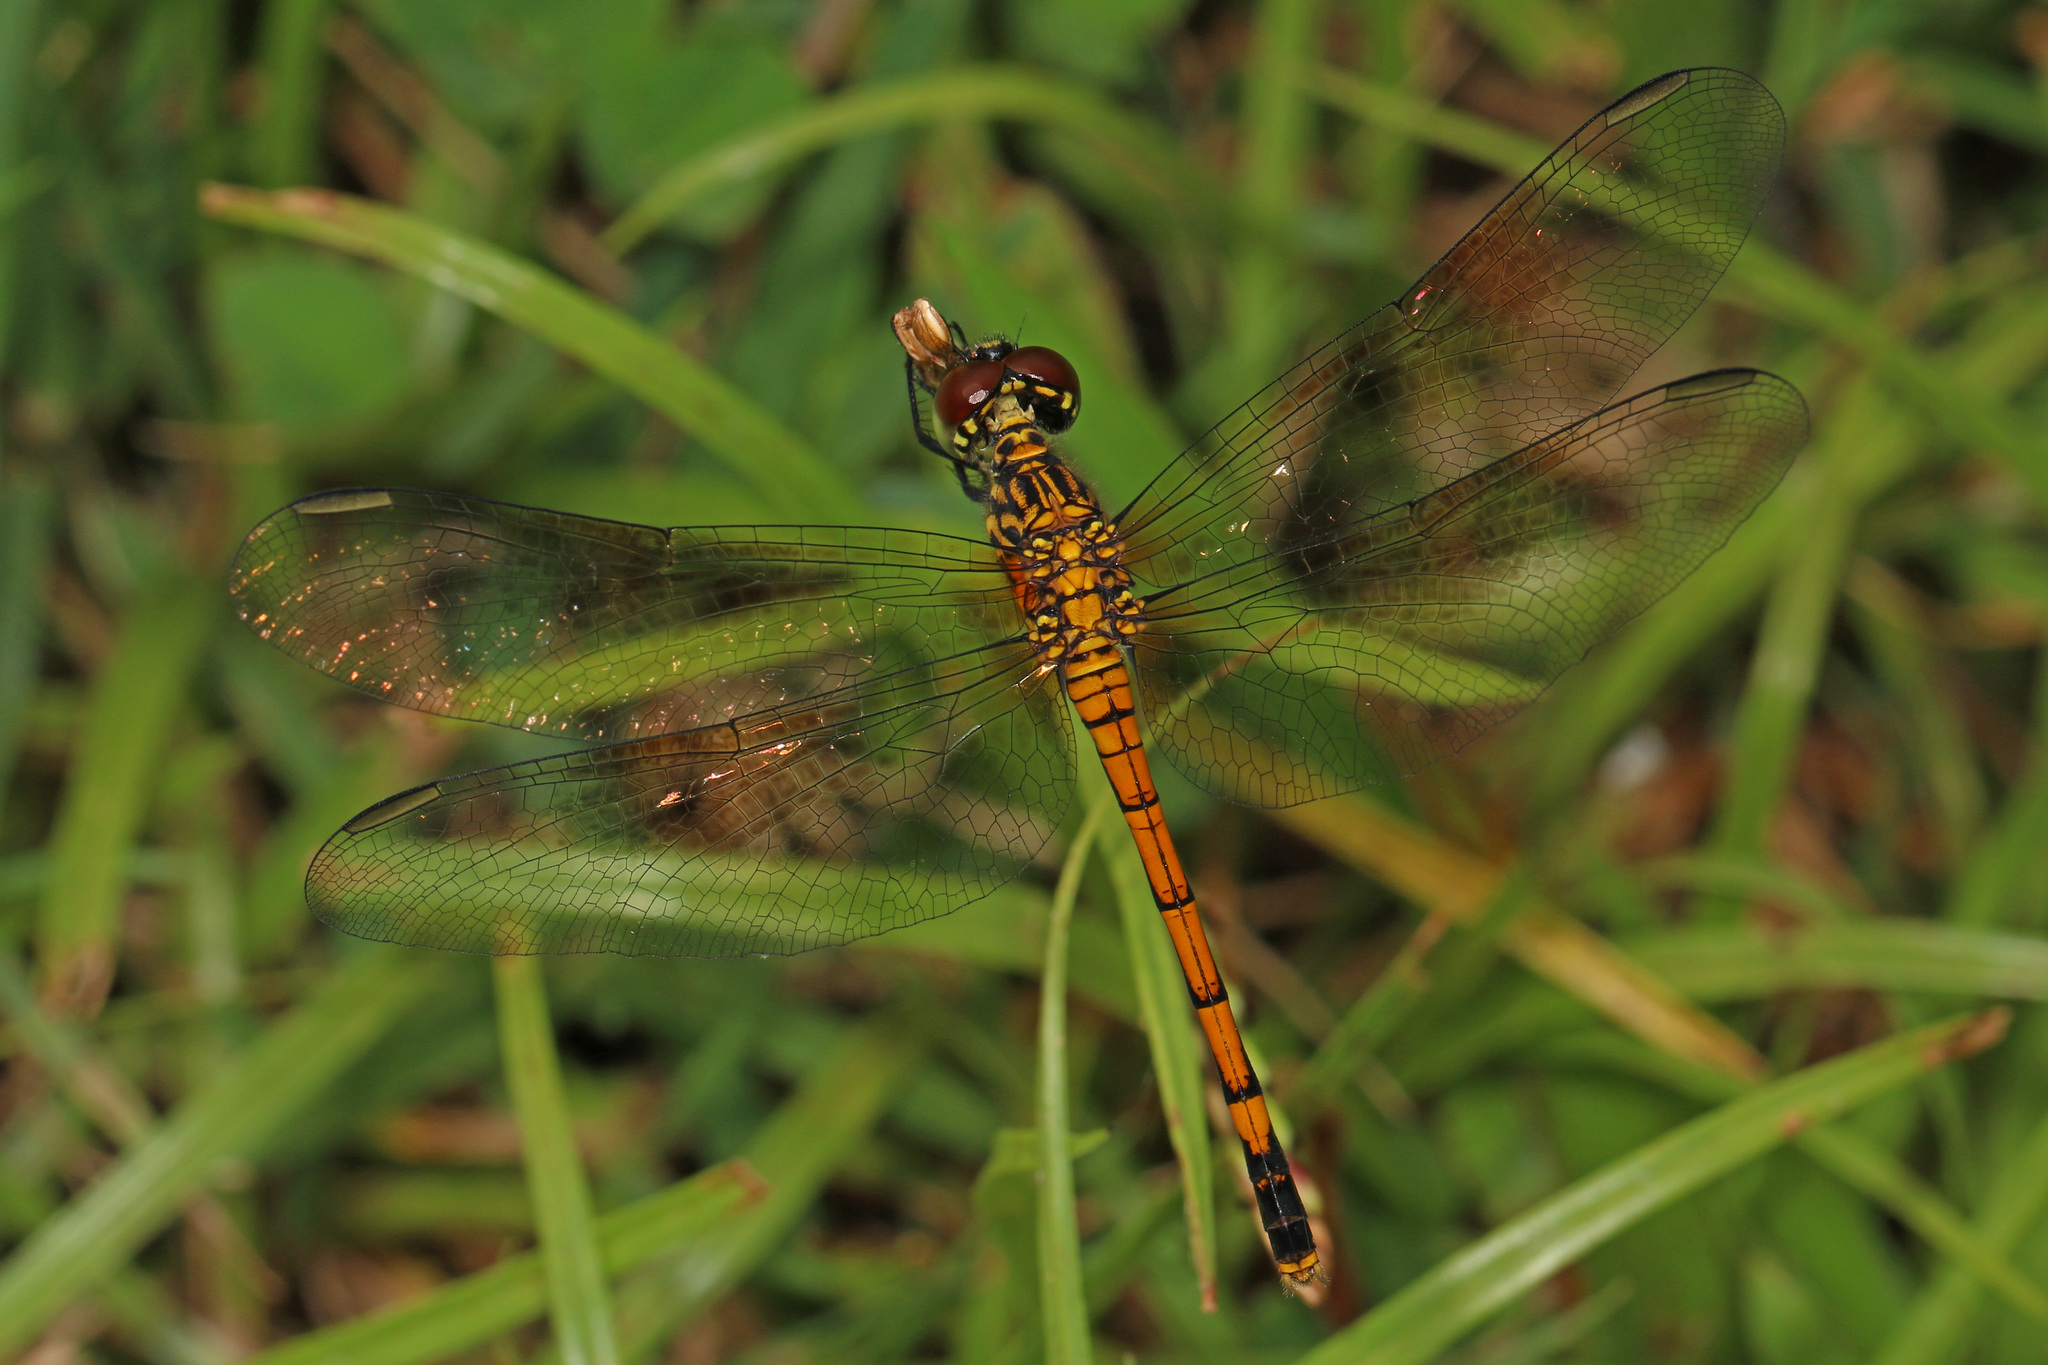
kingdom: Animalia
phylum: Arthropoda
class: Insecta
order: Odonata
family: Libellulidae
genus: Erythrodiplax
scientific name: Erythrodiplax berenice
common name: Seaside dragonlet
